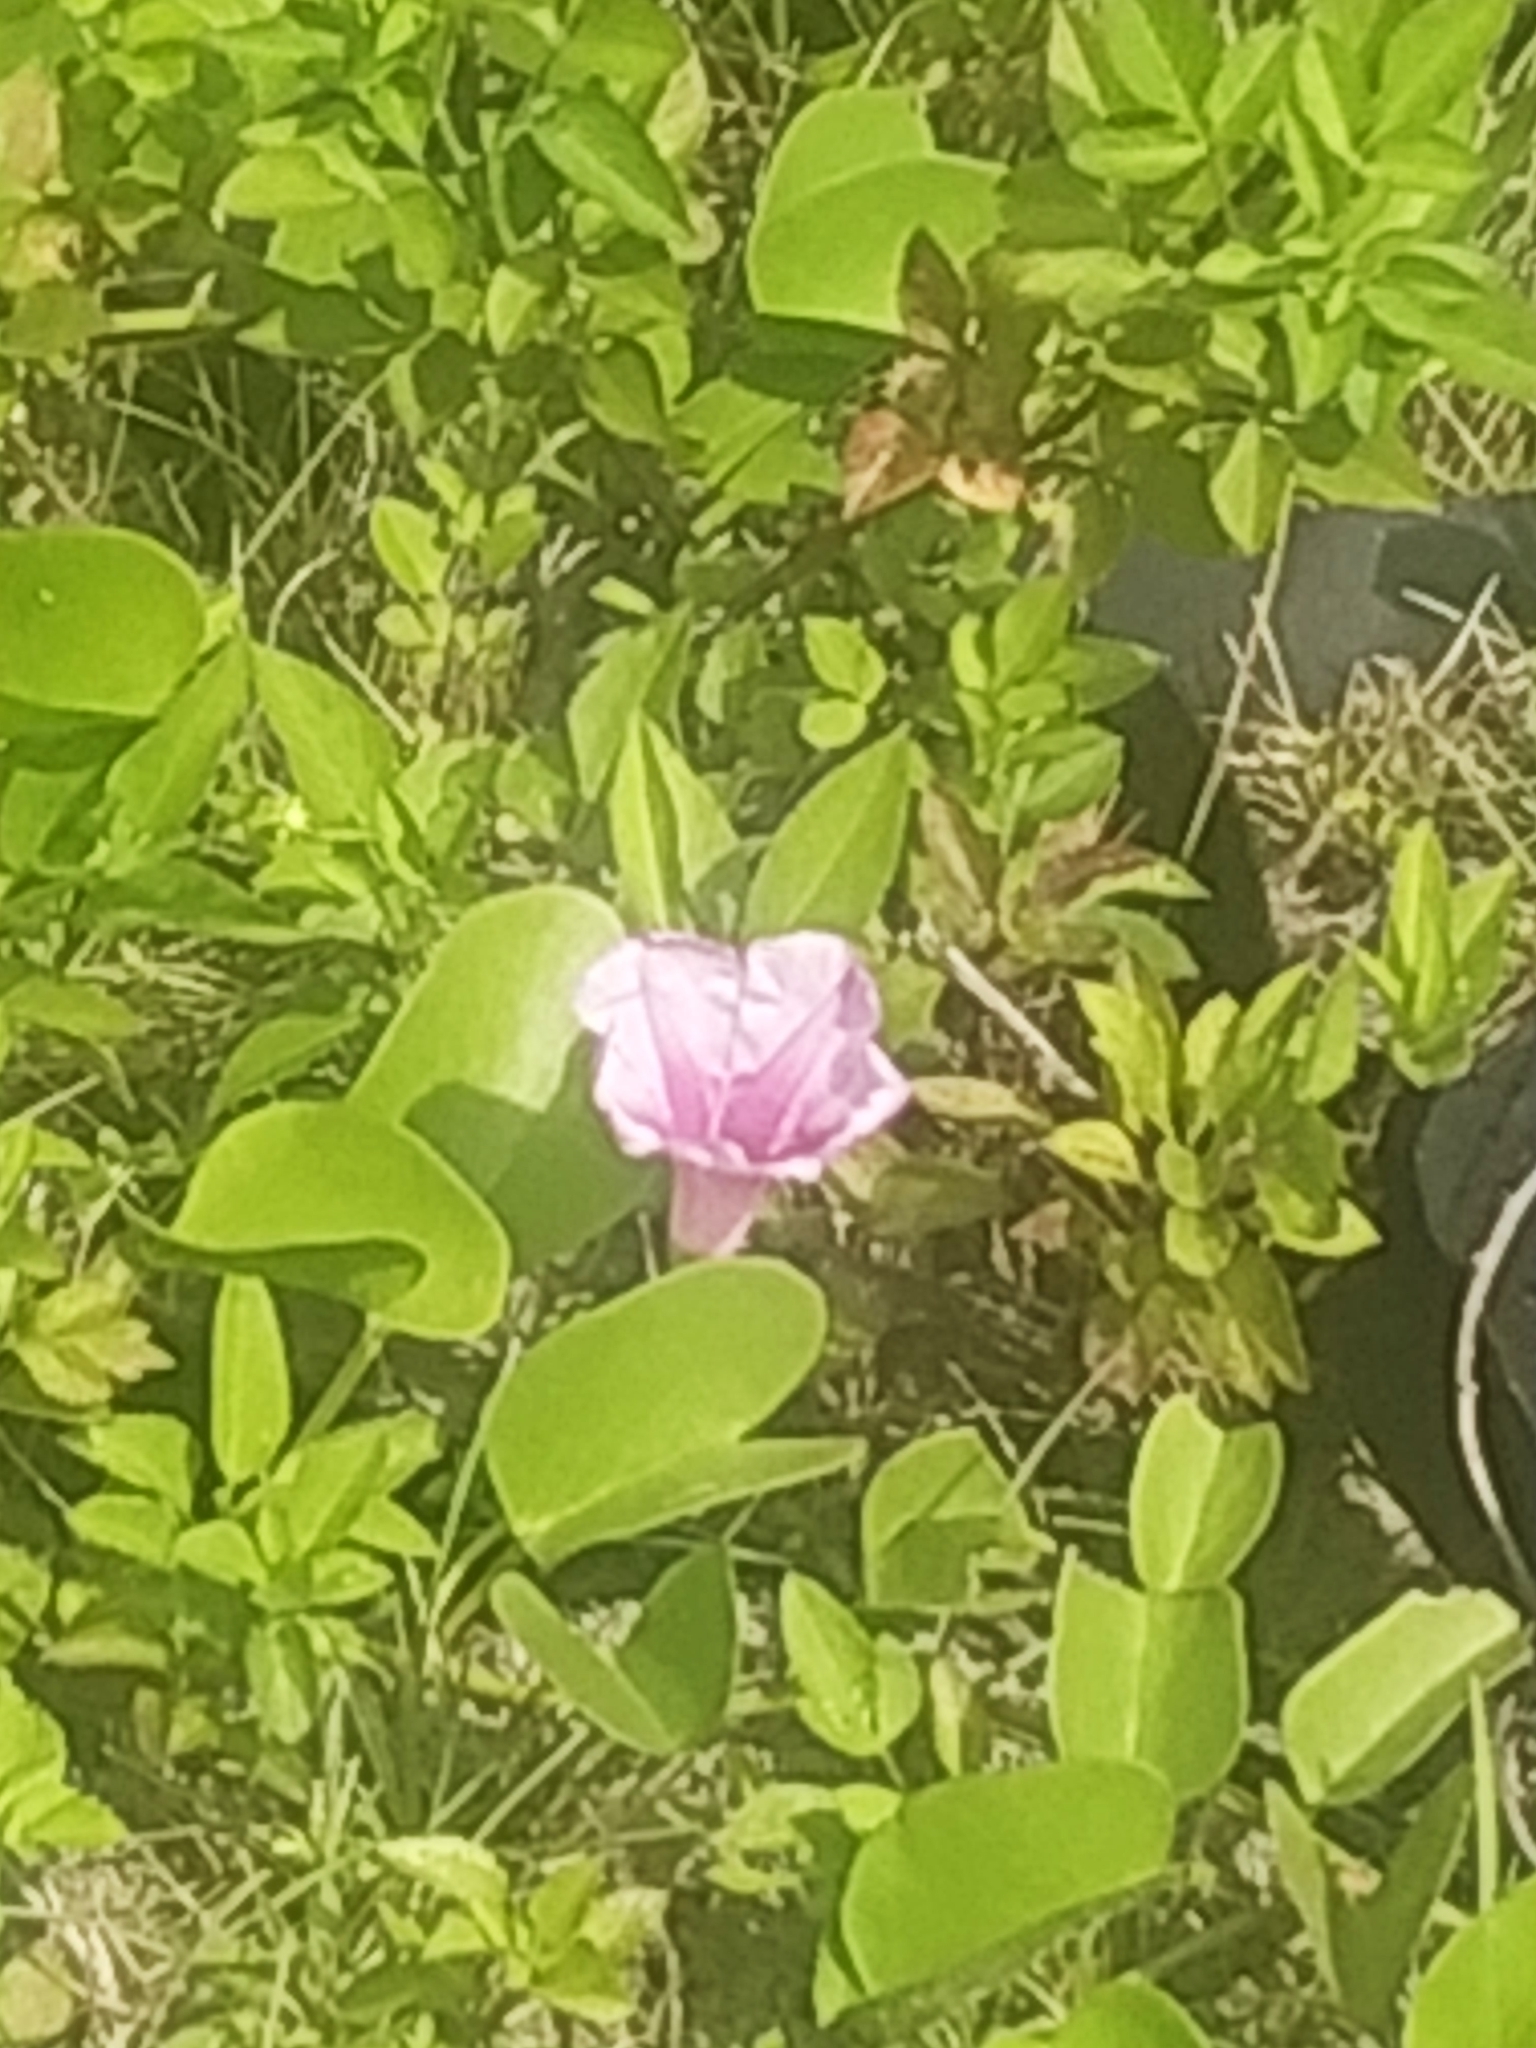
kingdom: Plantae
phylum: Tracheophyta
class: Magnoliopsida
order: Solanales
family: Convolvulaceae
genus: Ipomoea
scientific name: Ipomoea pes-caprae
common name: Beach morning glory
